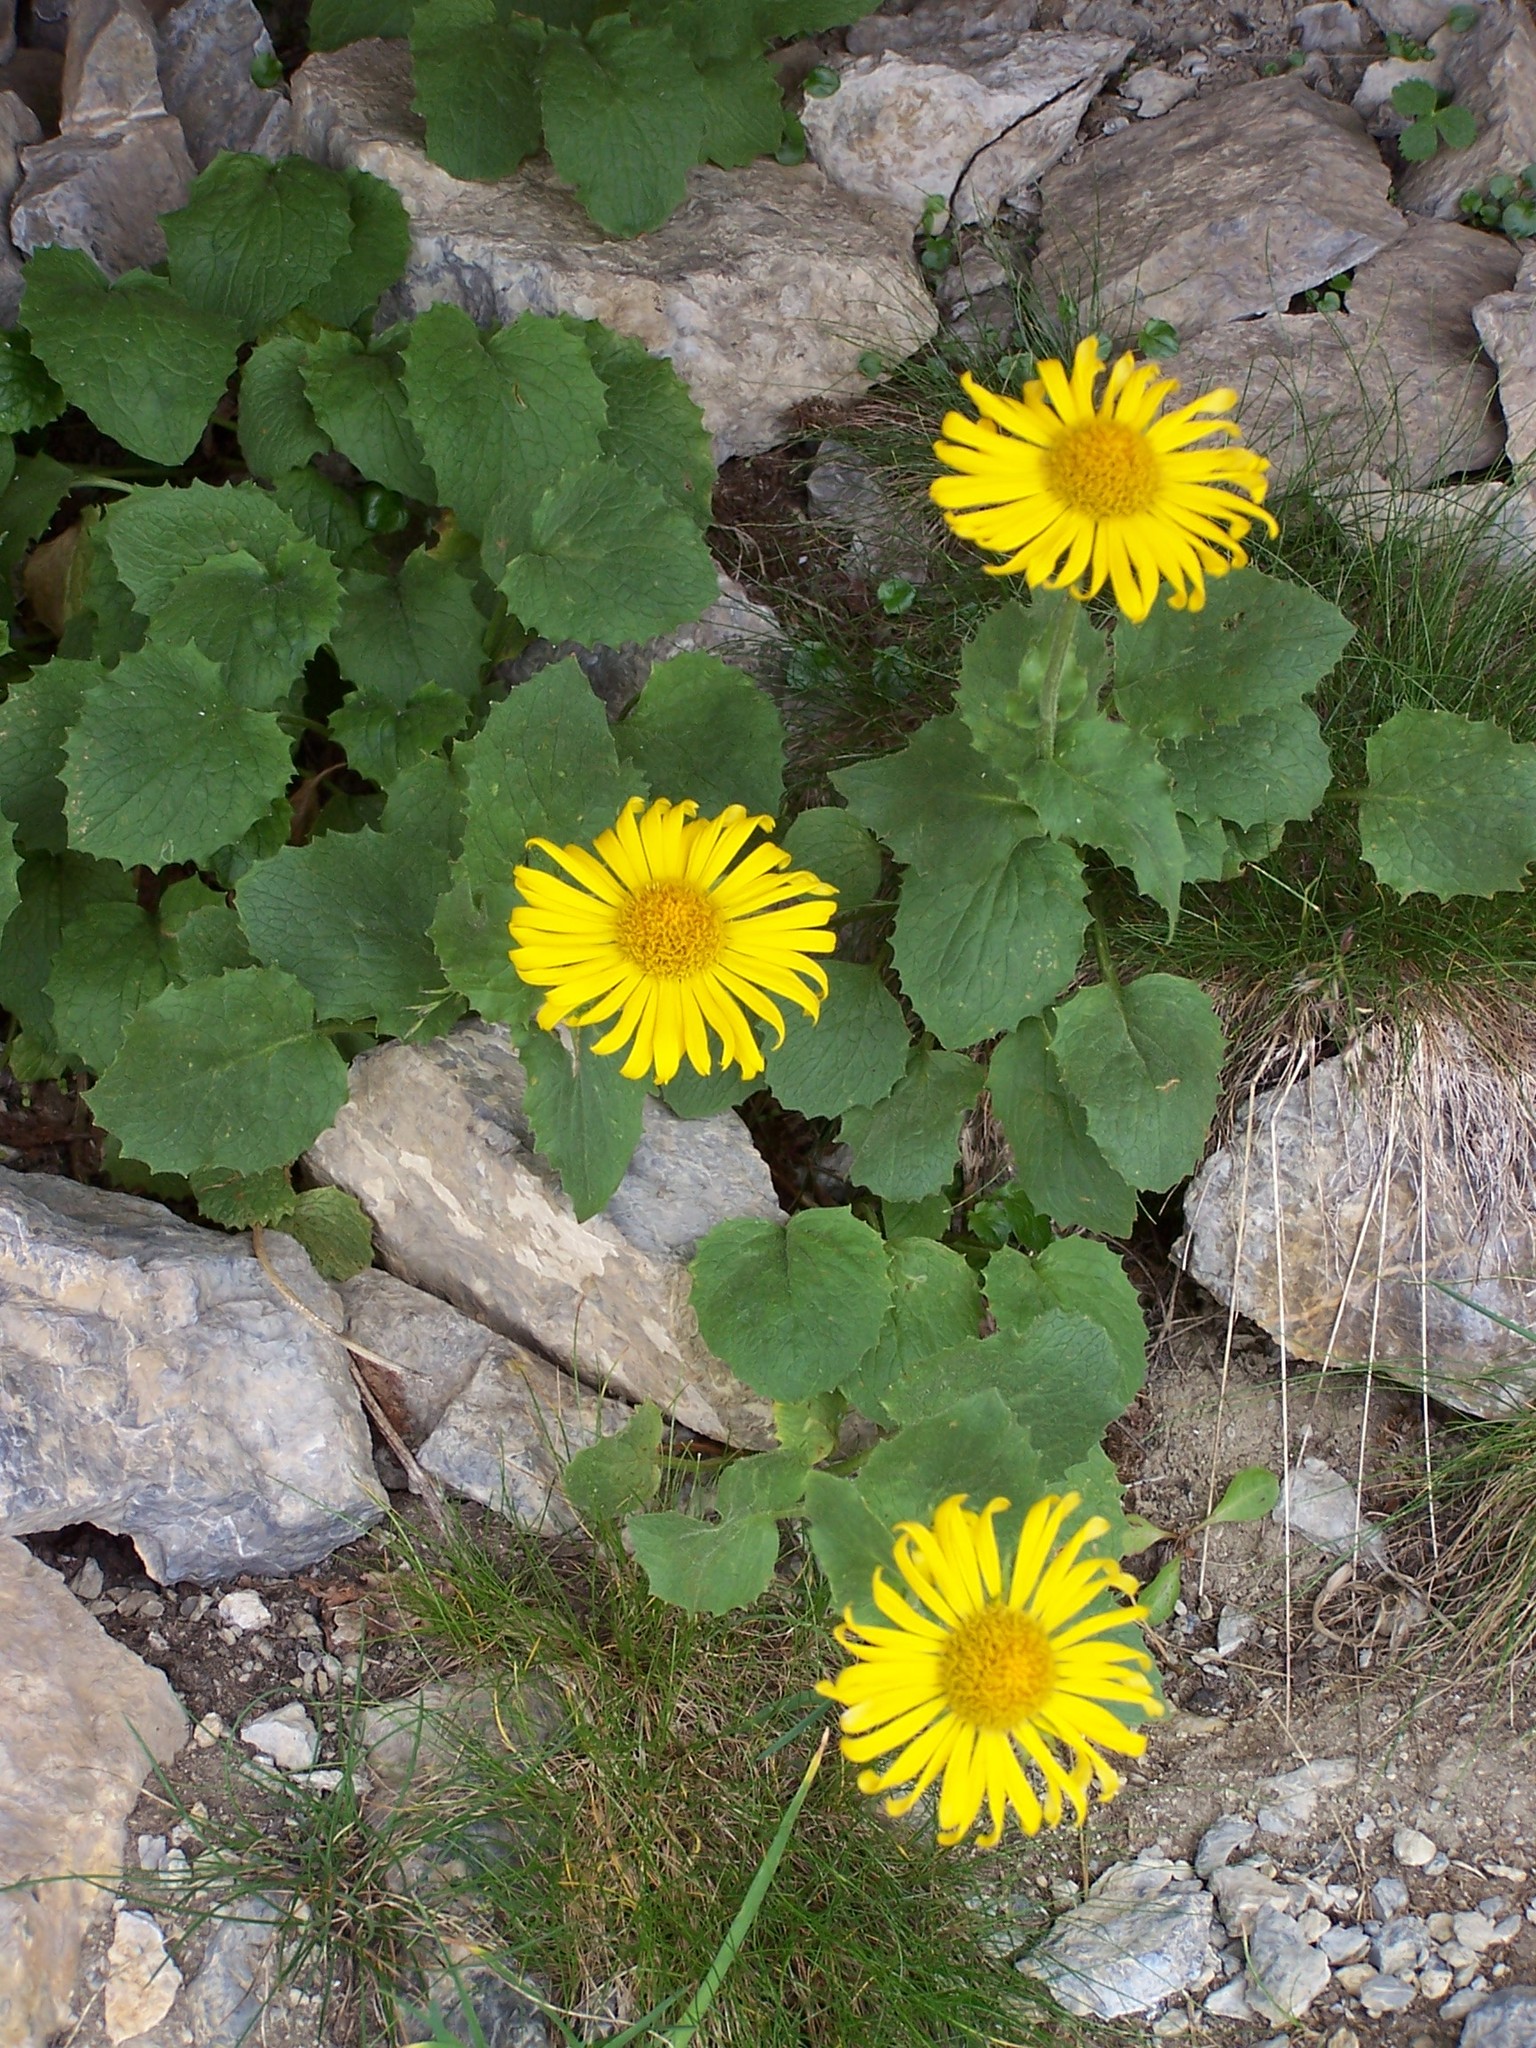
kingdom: Plantae
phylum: Tracheophyta
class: Magnoliopsida
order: Asterales
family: Asteraceae
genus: Doronicum
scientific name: Doronicum grandiflorum
